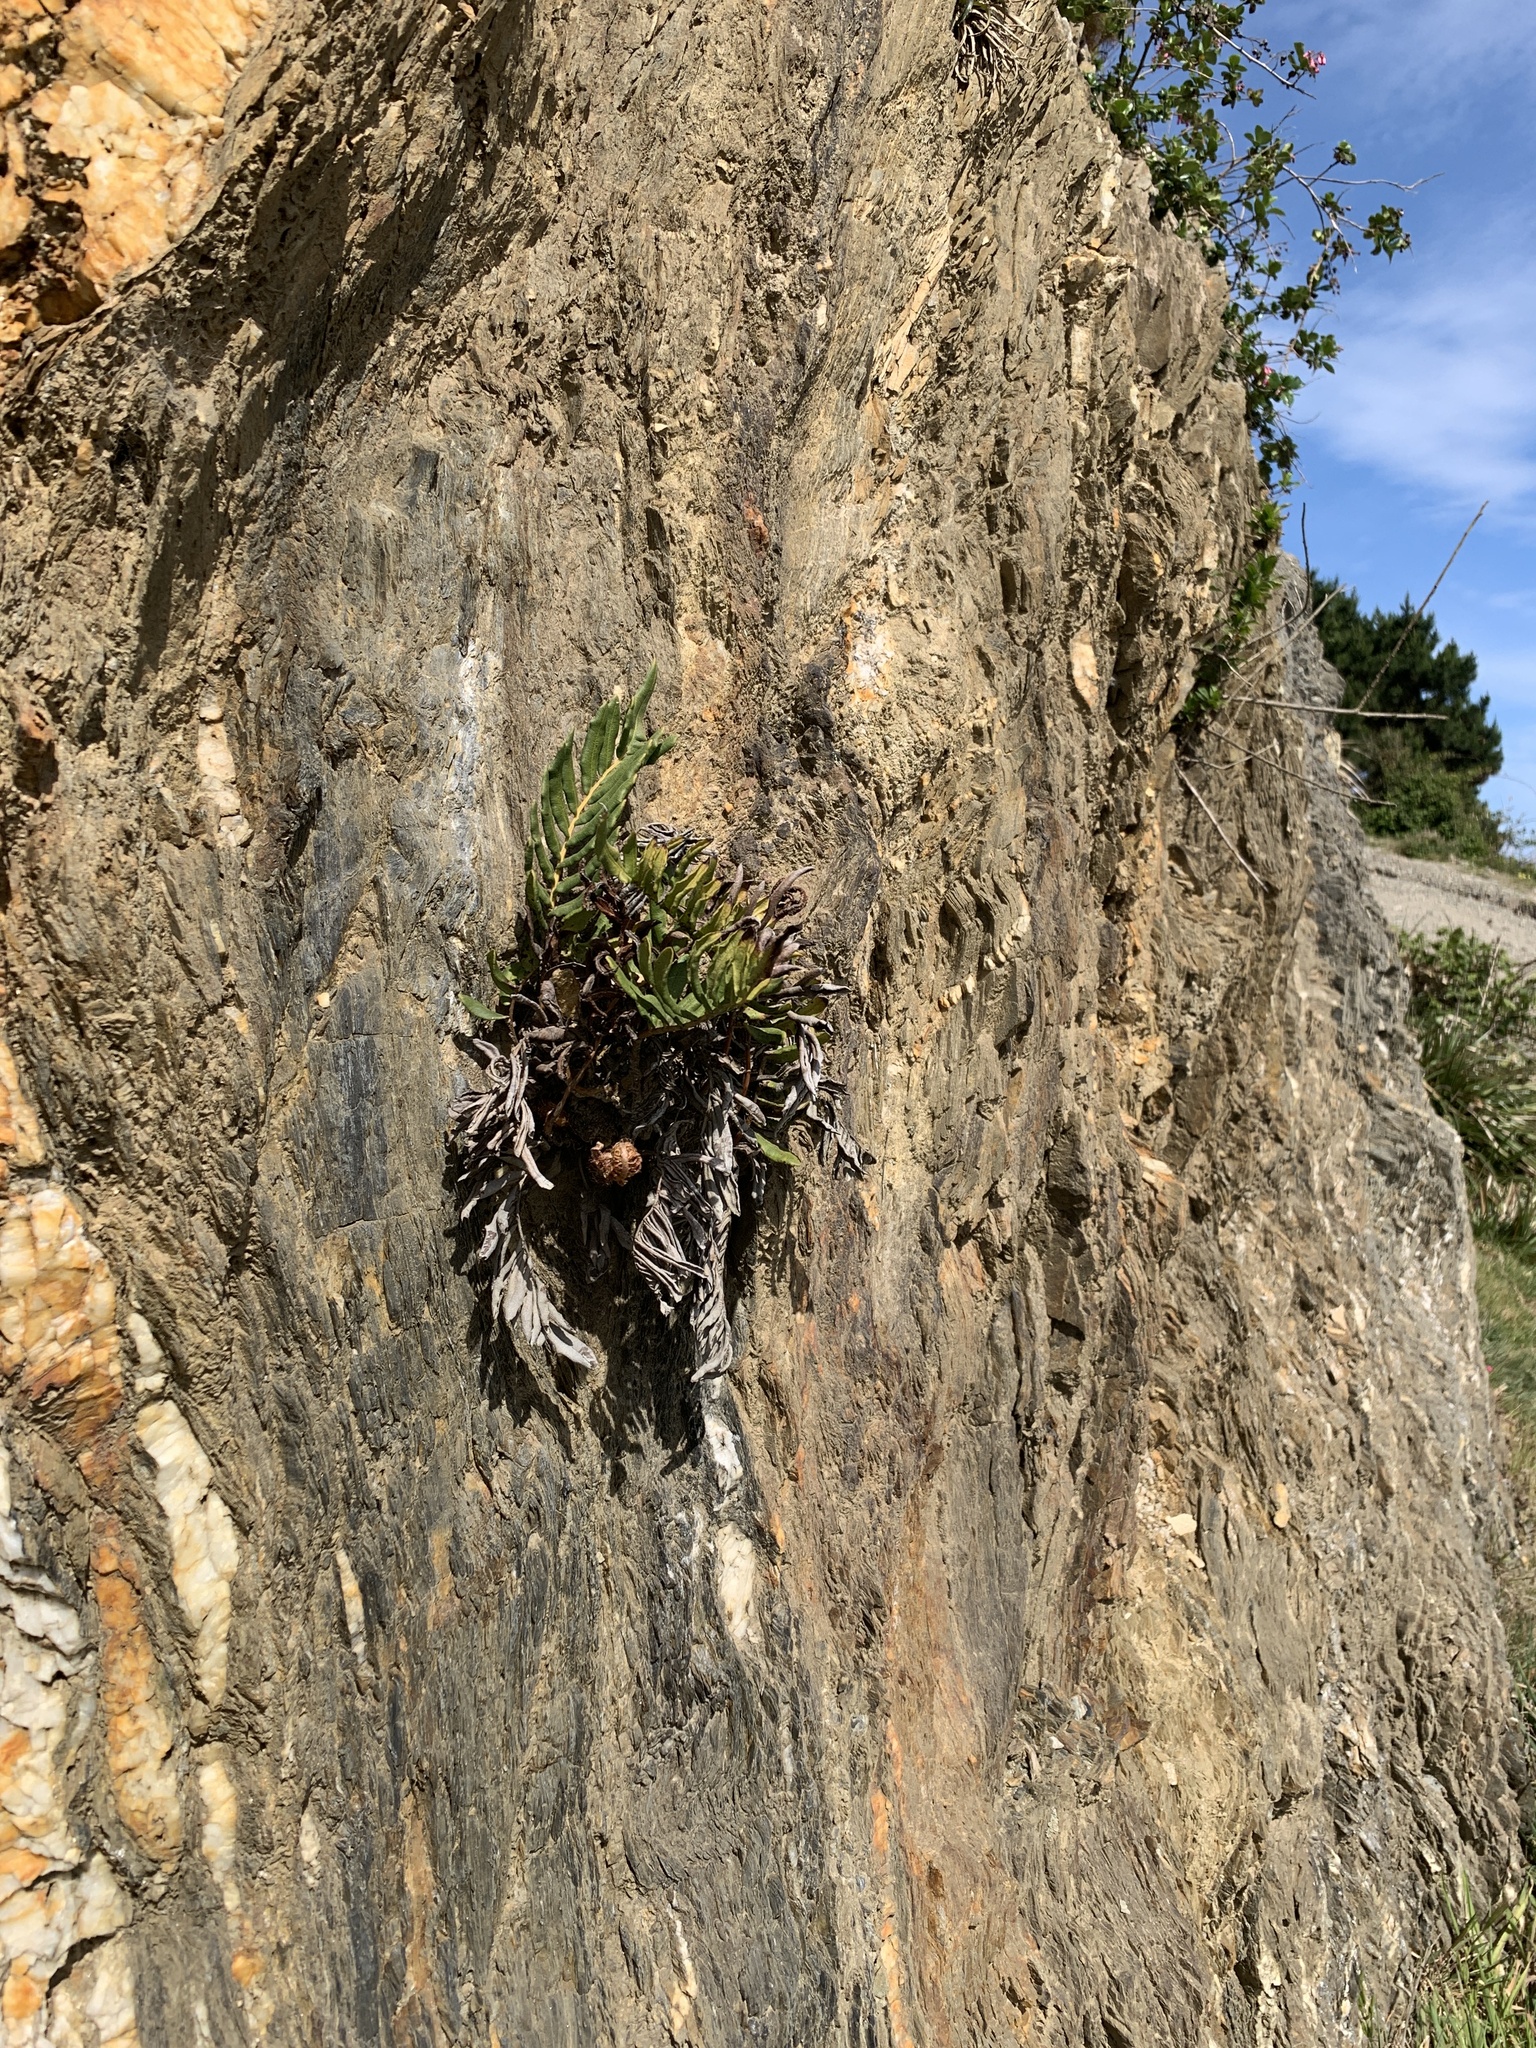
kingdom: Plantae
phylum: Tracheophyta
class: Polypodiopsida
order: Polypodiales
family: Blechnaceae
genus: Parablechnum
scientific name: Parablechnum chilense
